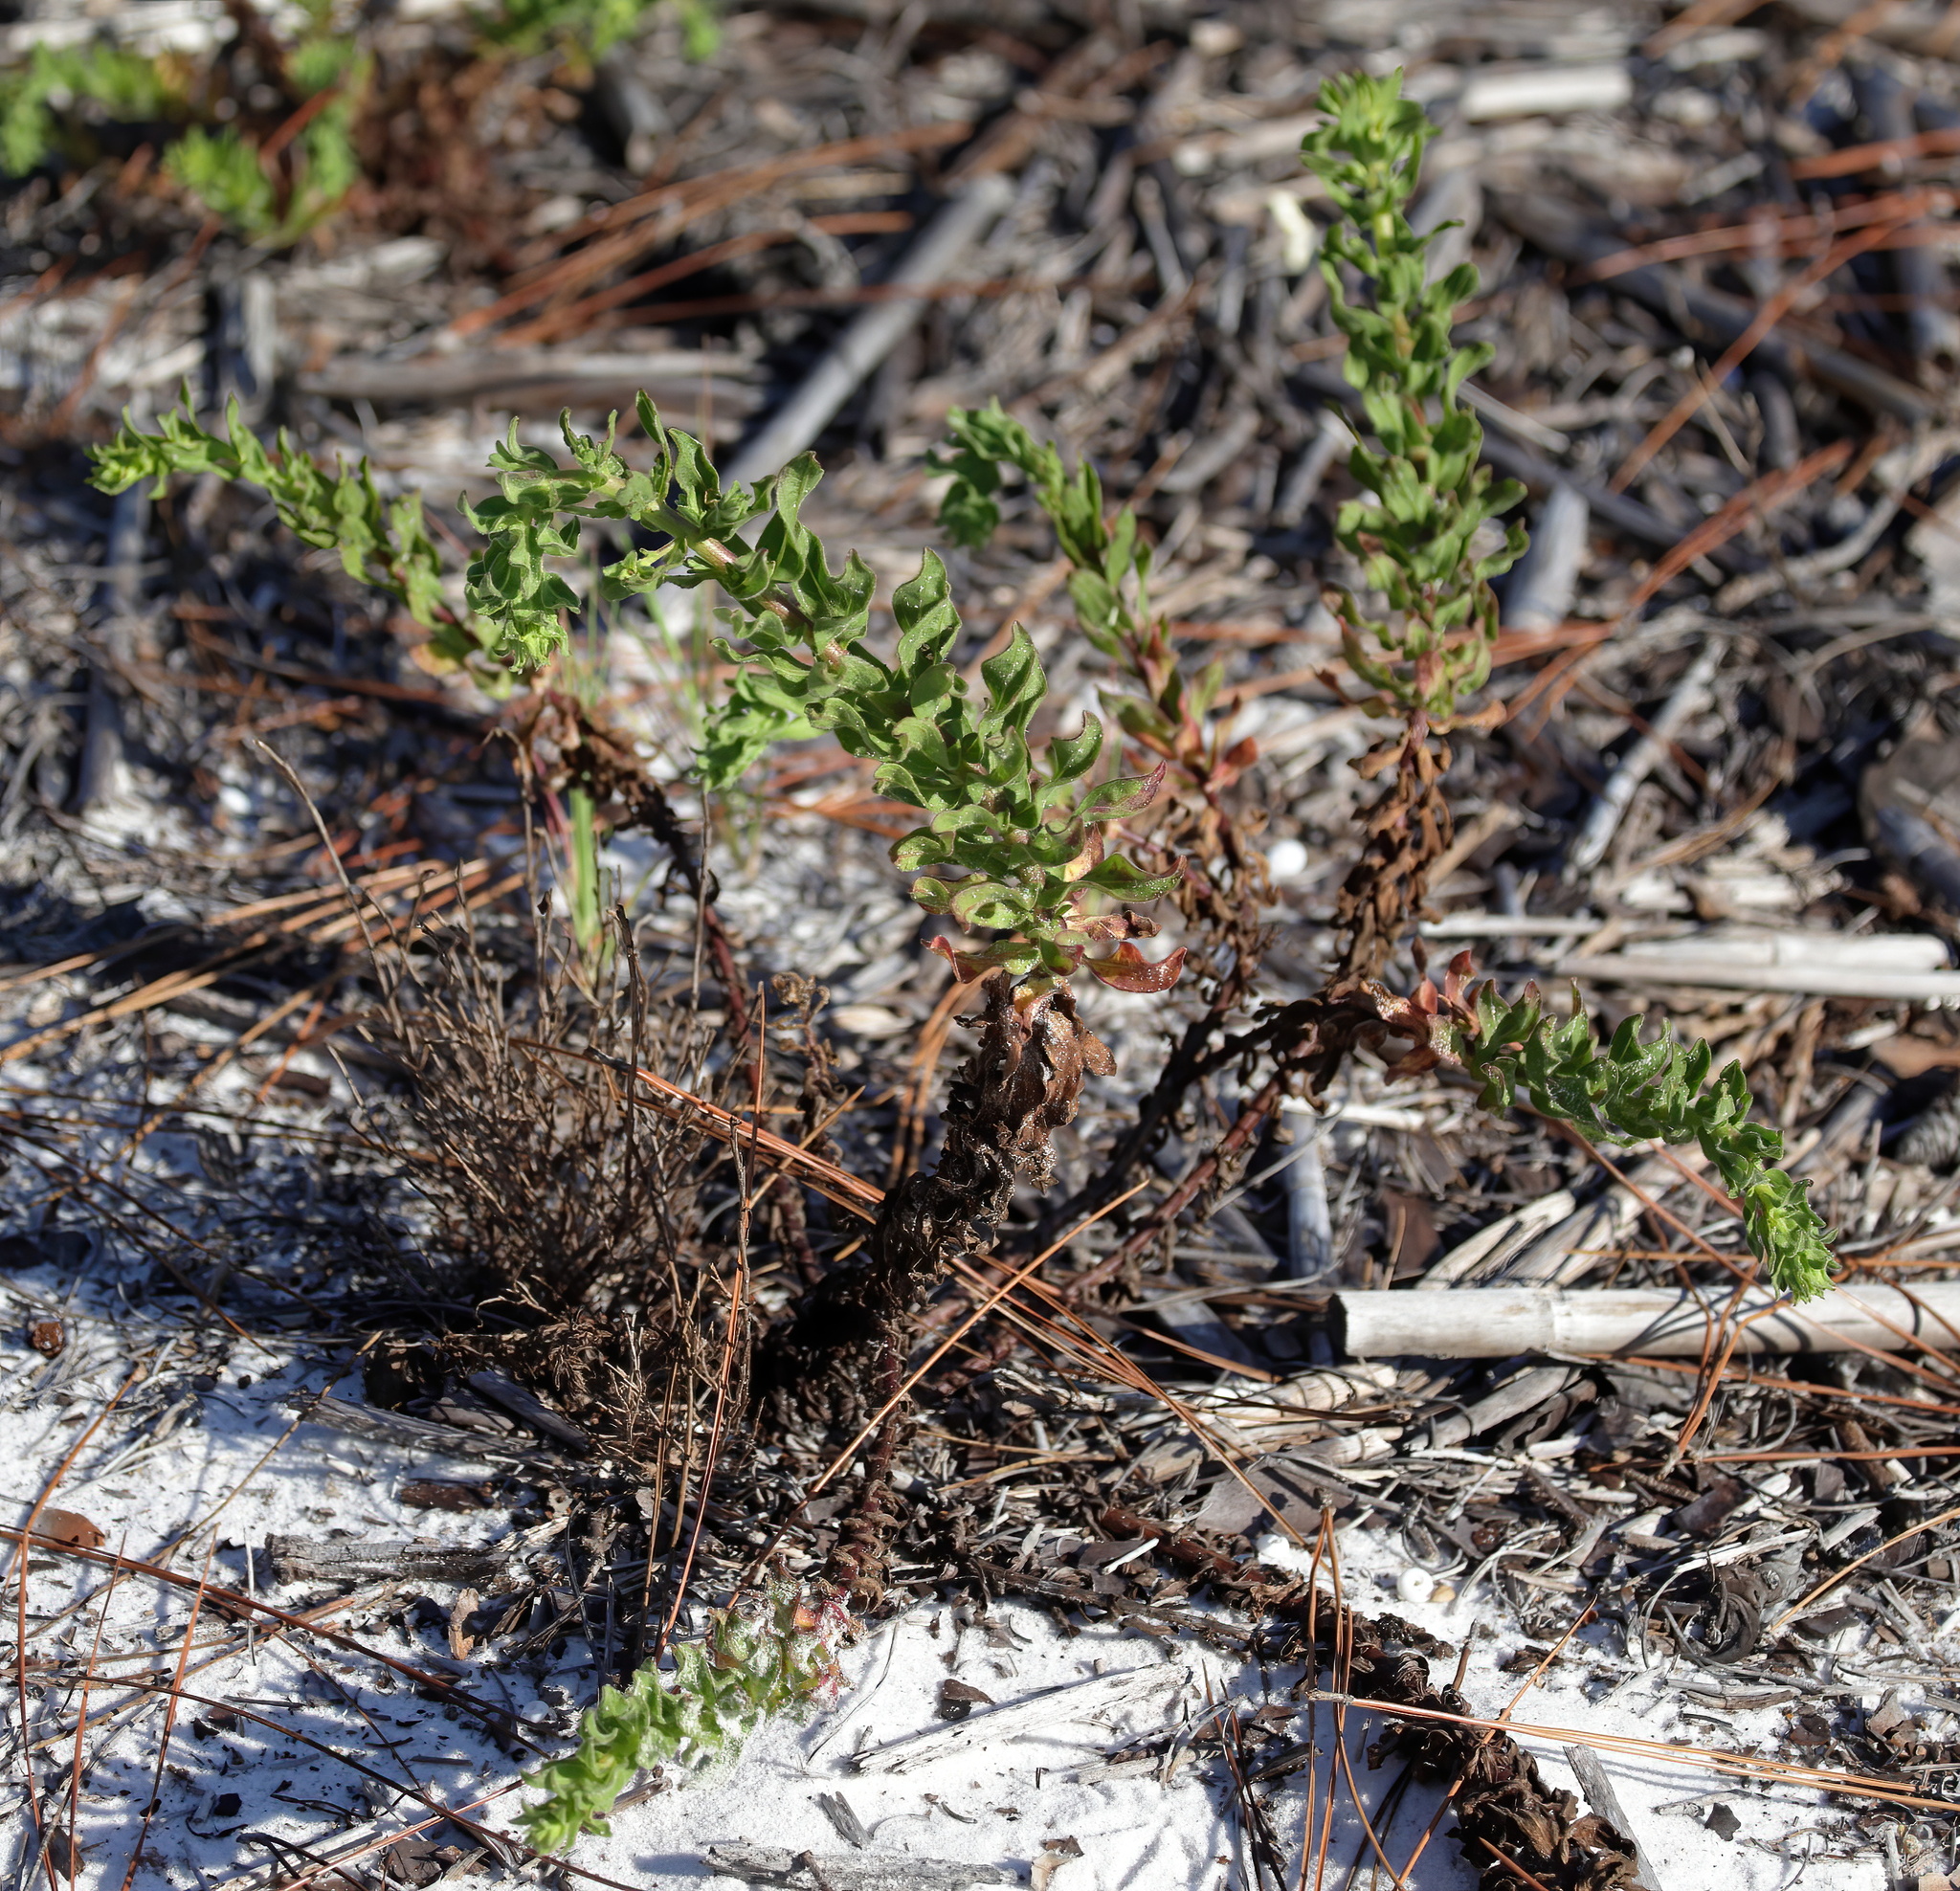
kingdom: Plantae
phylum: Tracheophyta
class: Magnoliopsida
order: Asterales
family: Asteraceae
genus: Chrysopsis
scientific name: Chrysopsis godfreyi
